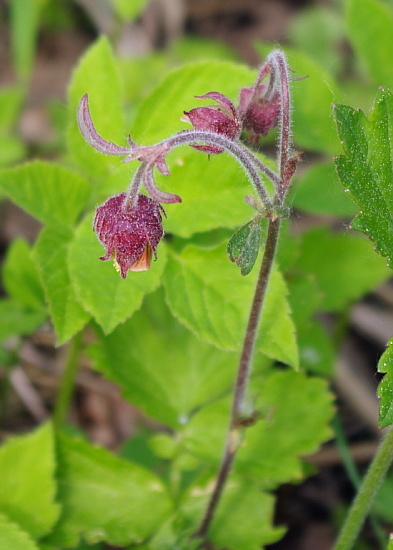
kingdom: Plantae
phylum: Tracheophyta
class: Magnoliopsida
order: Rosales
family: Rosaceae
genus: Geum
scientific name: Geum rivale
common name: Water avens
